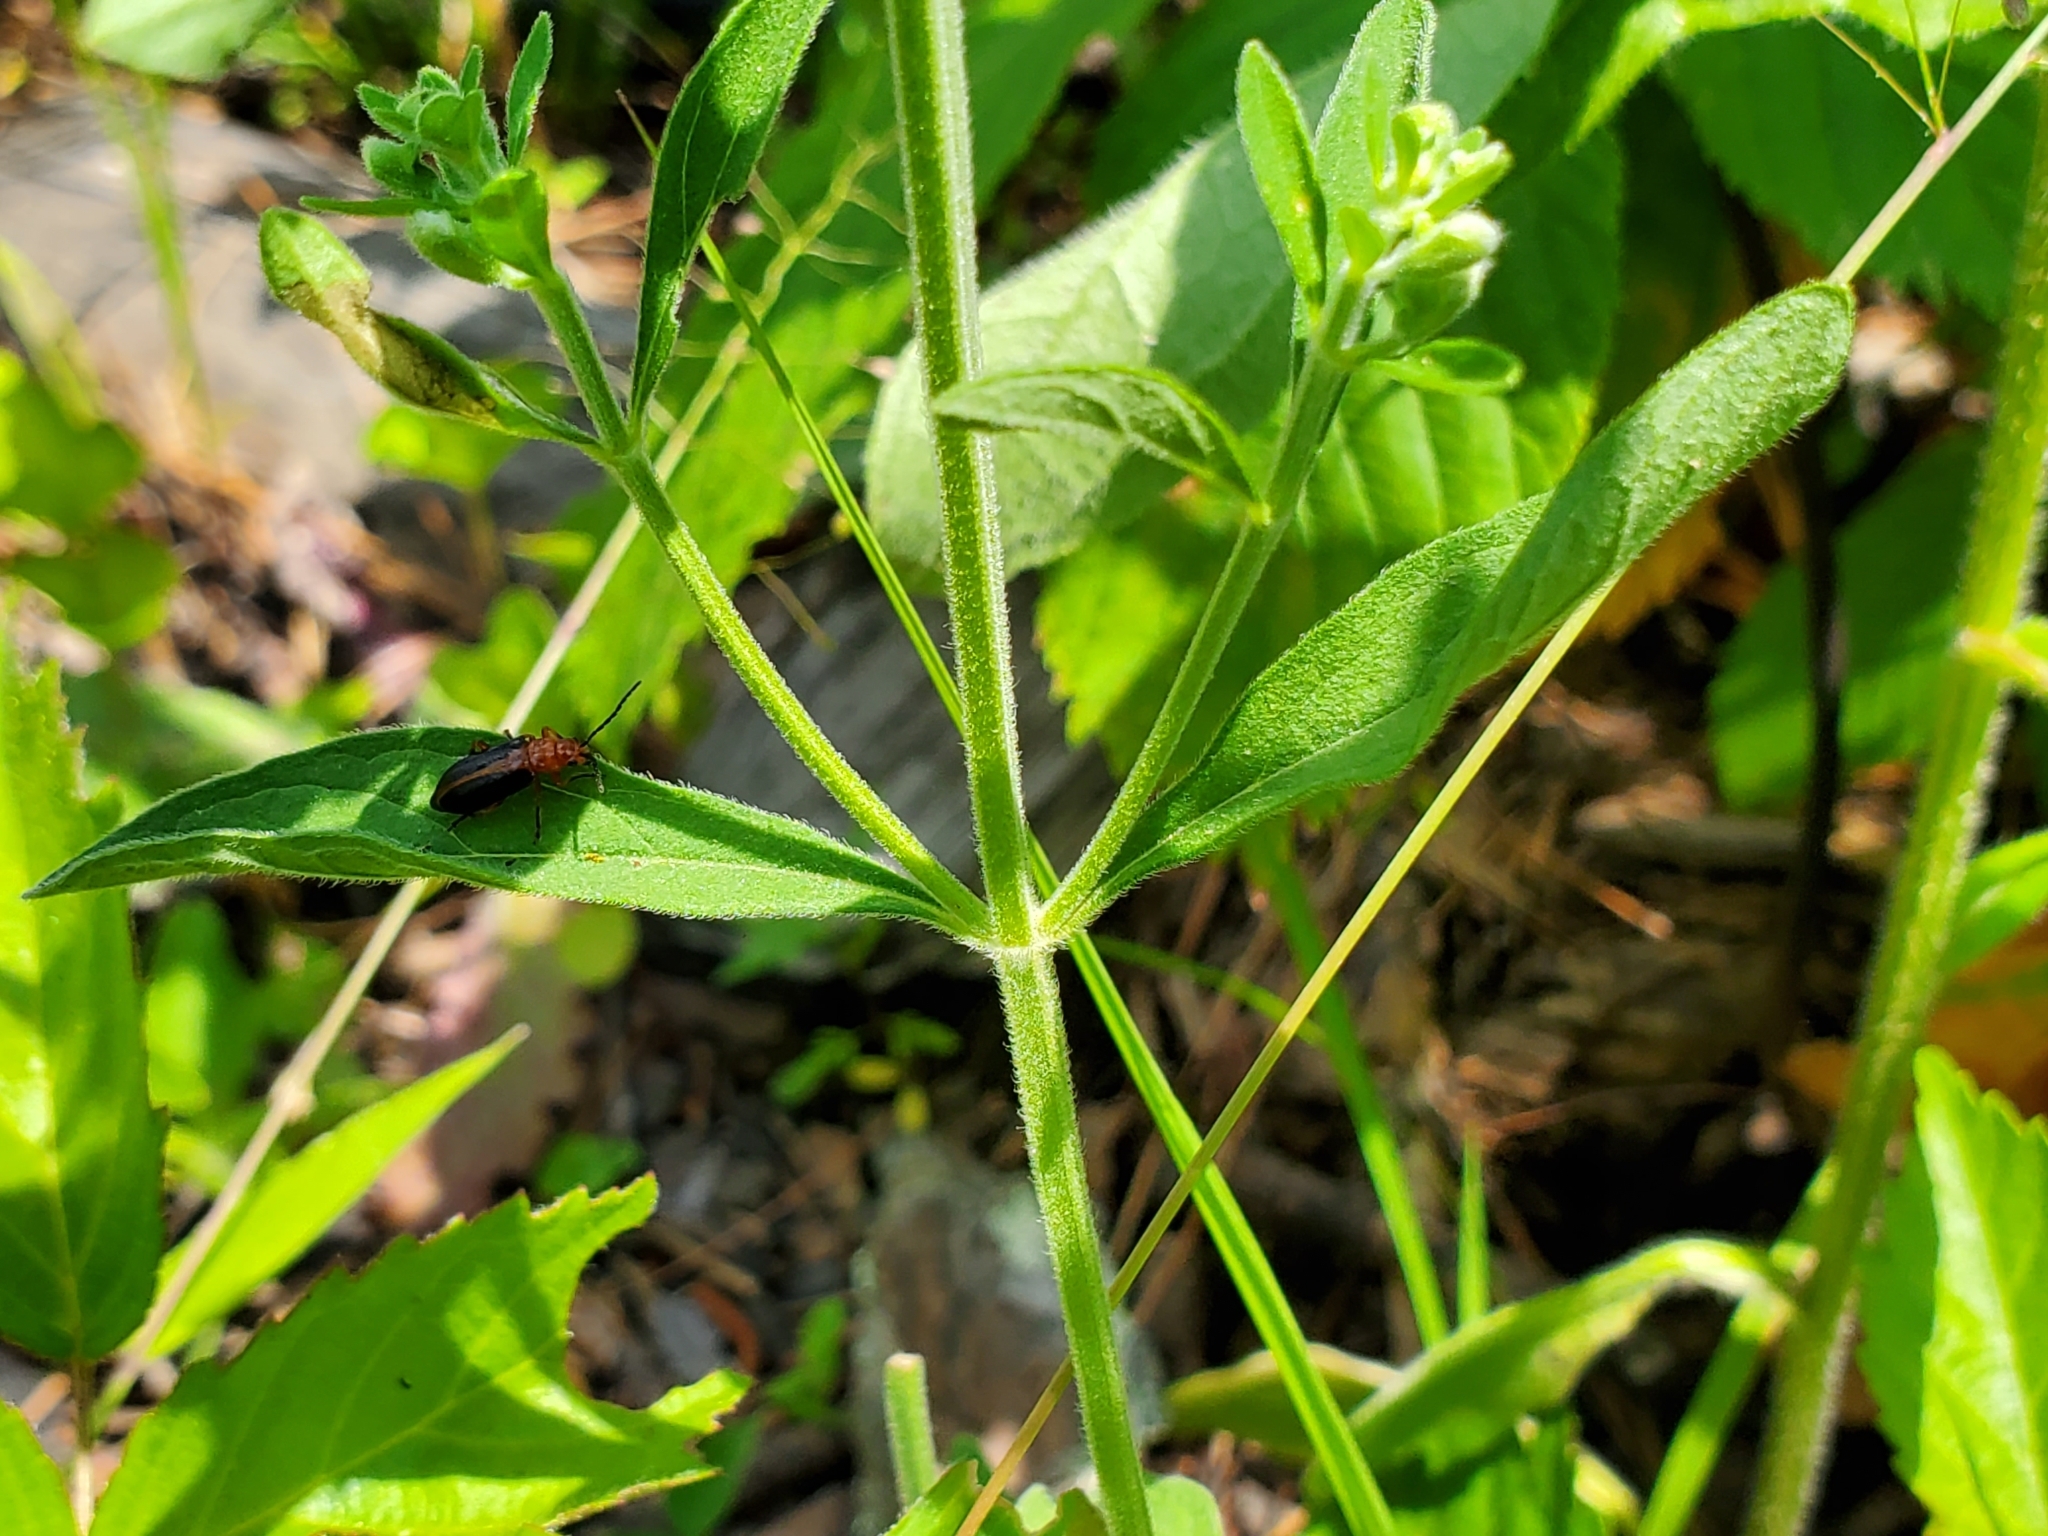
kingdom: Plantae
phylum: Tracheophyta
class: Magnoliopsida
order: Lamiales
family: Lamiaceae
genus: Scutellaria
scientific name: Scutellaria integrifolia
